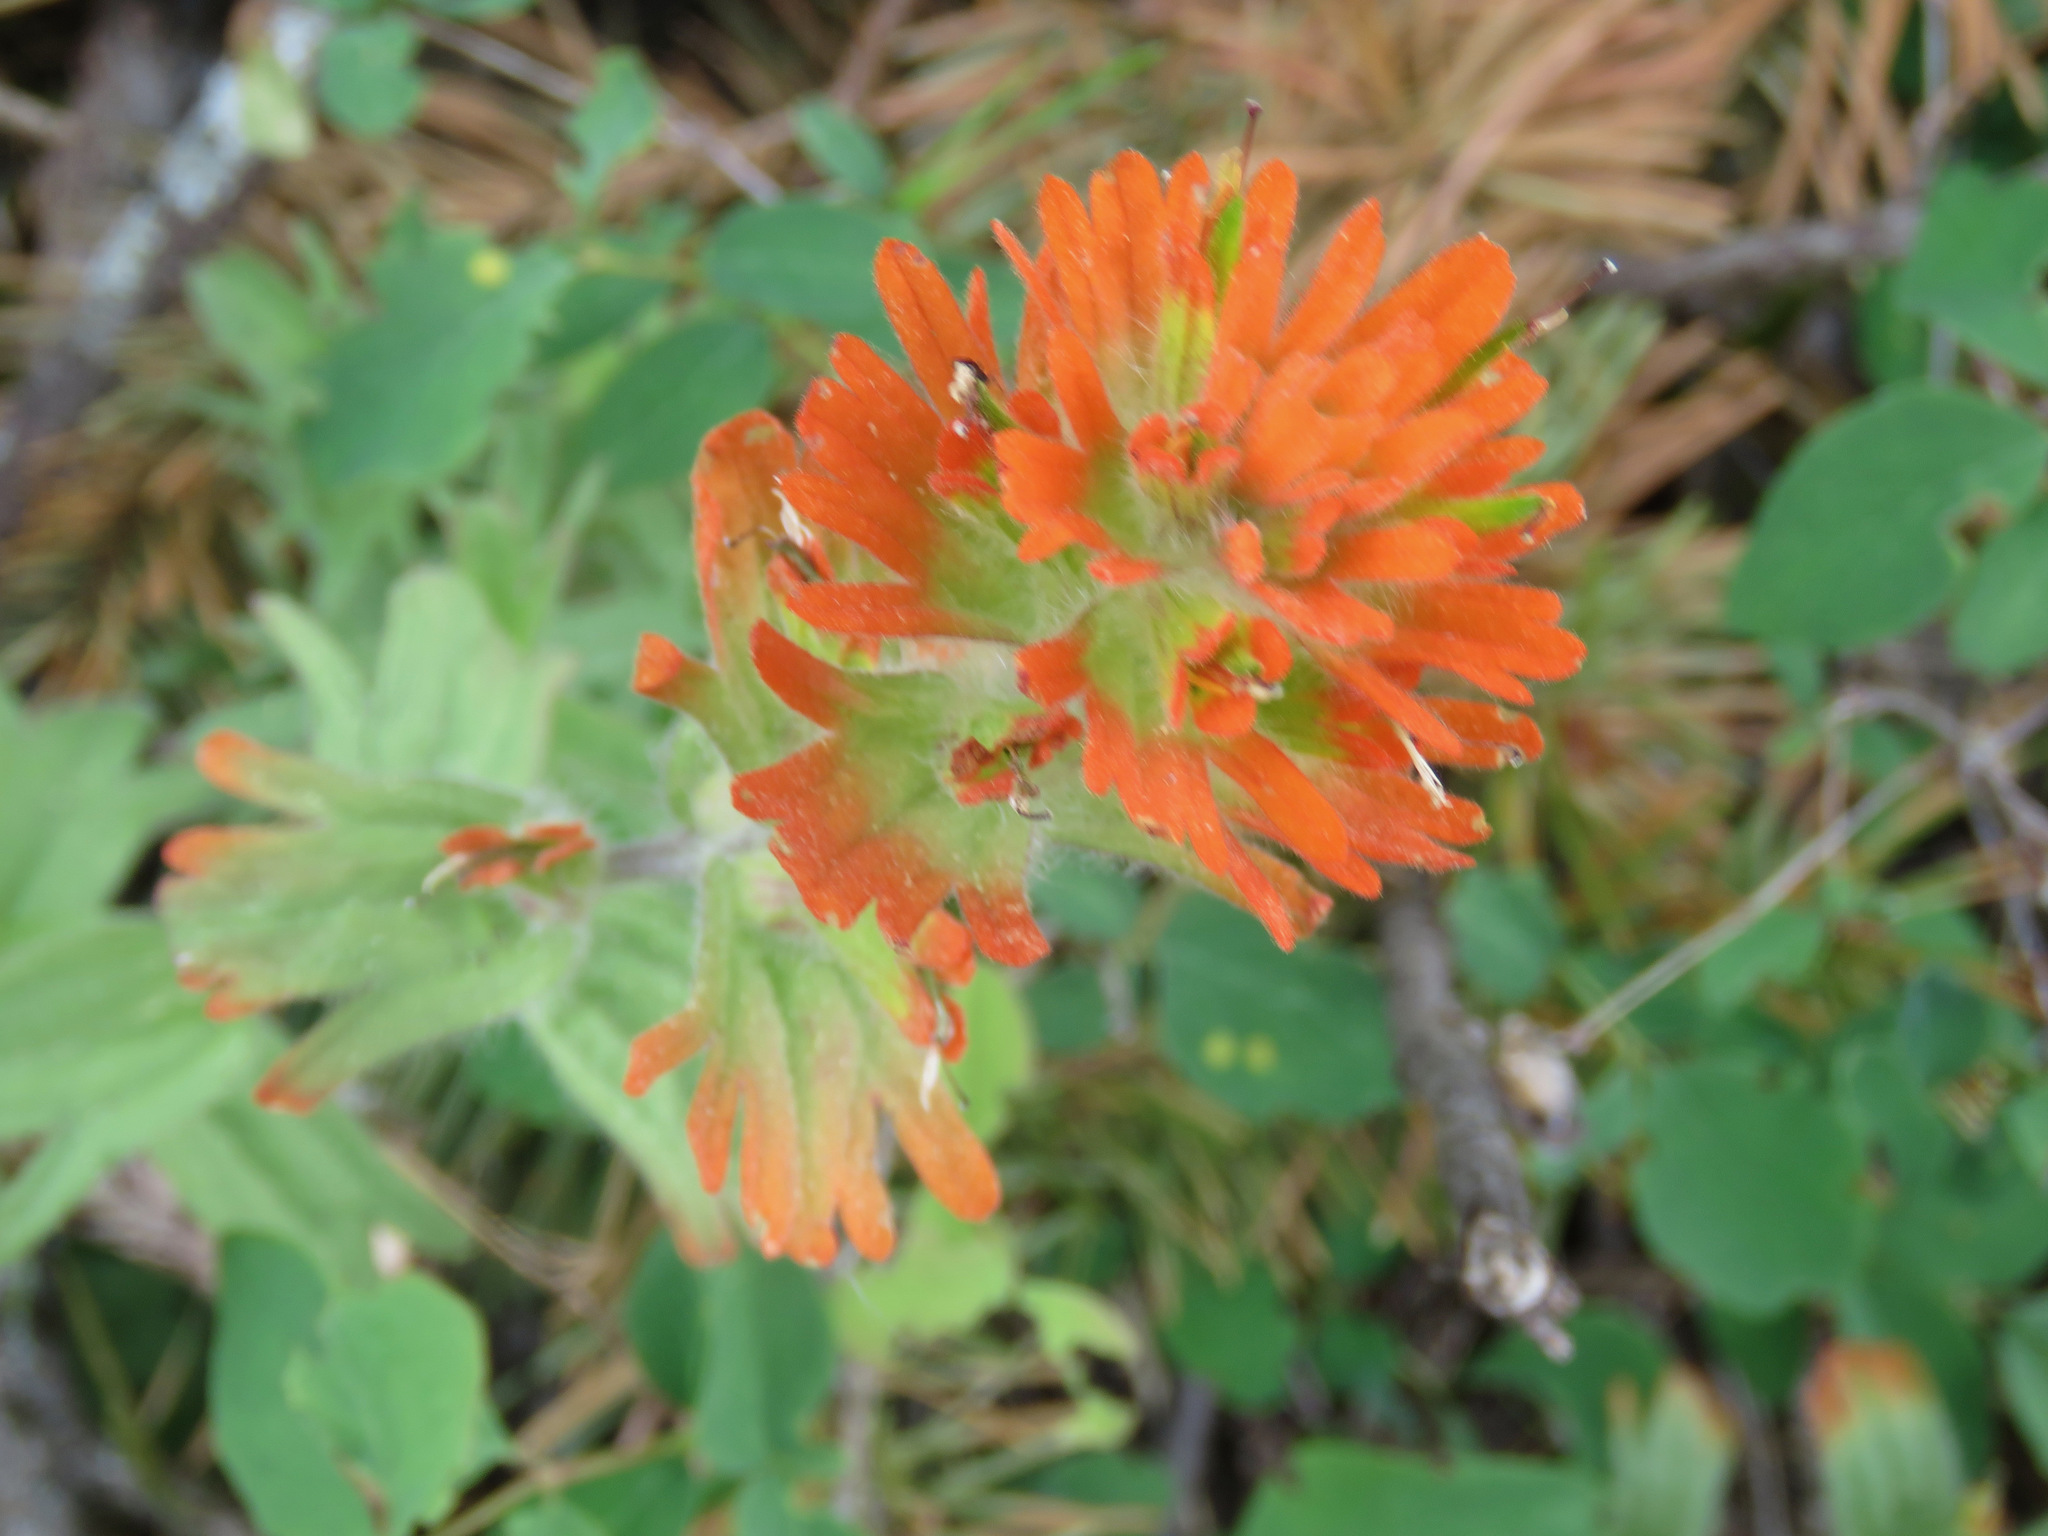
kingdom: Plantae
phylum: Tracheophyta
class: Magnoliopsida
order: Lamiales
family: Orobanchaceae
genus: Castilleja
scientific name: Castilleja hispida
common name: Bristly paintbrush
